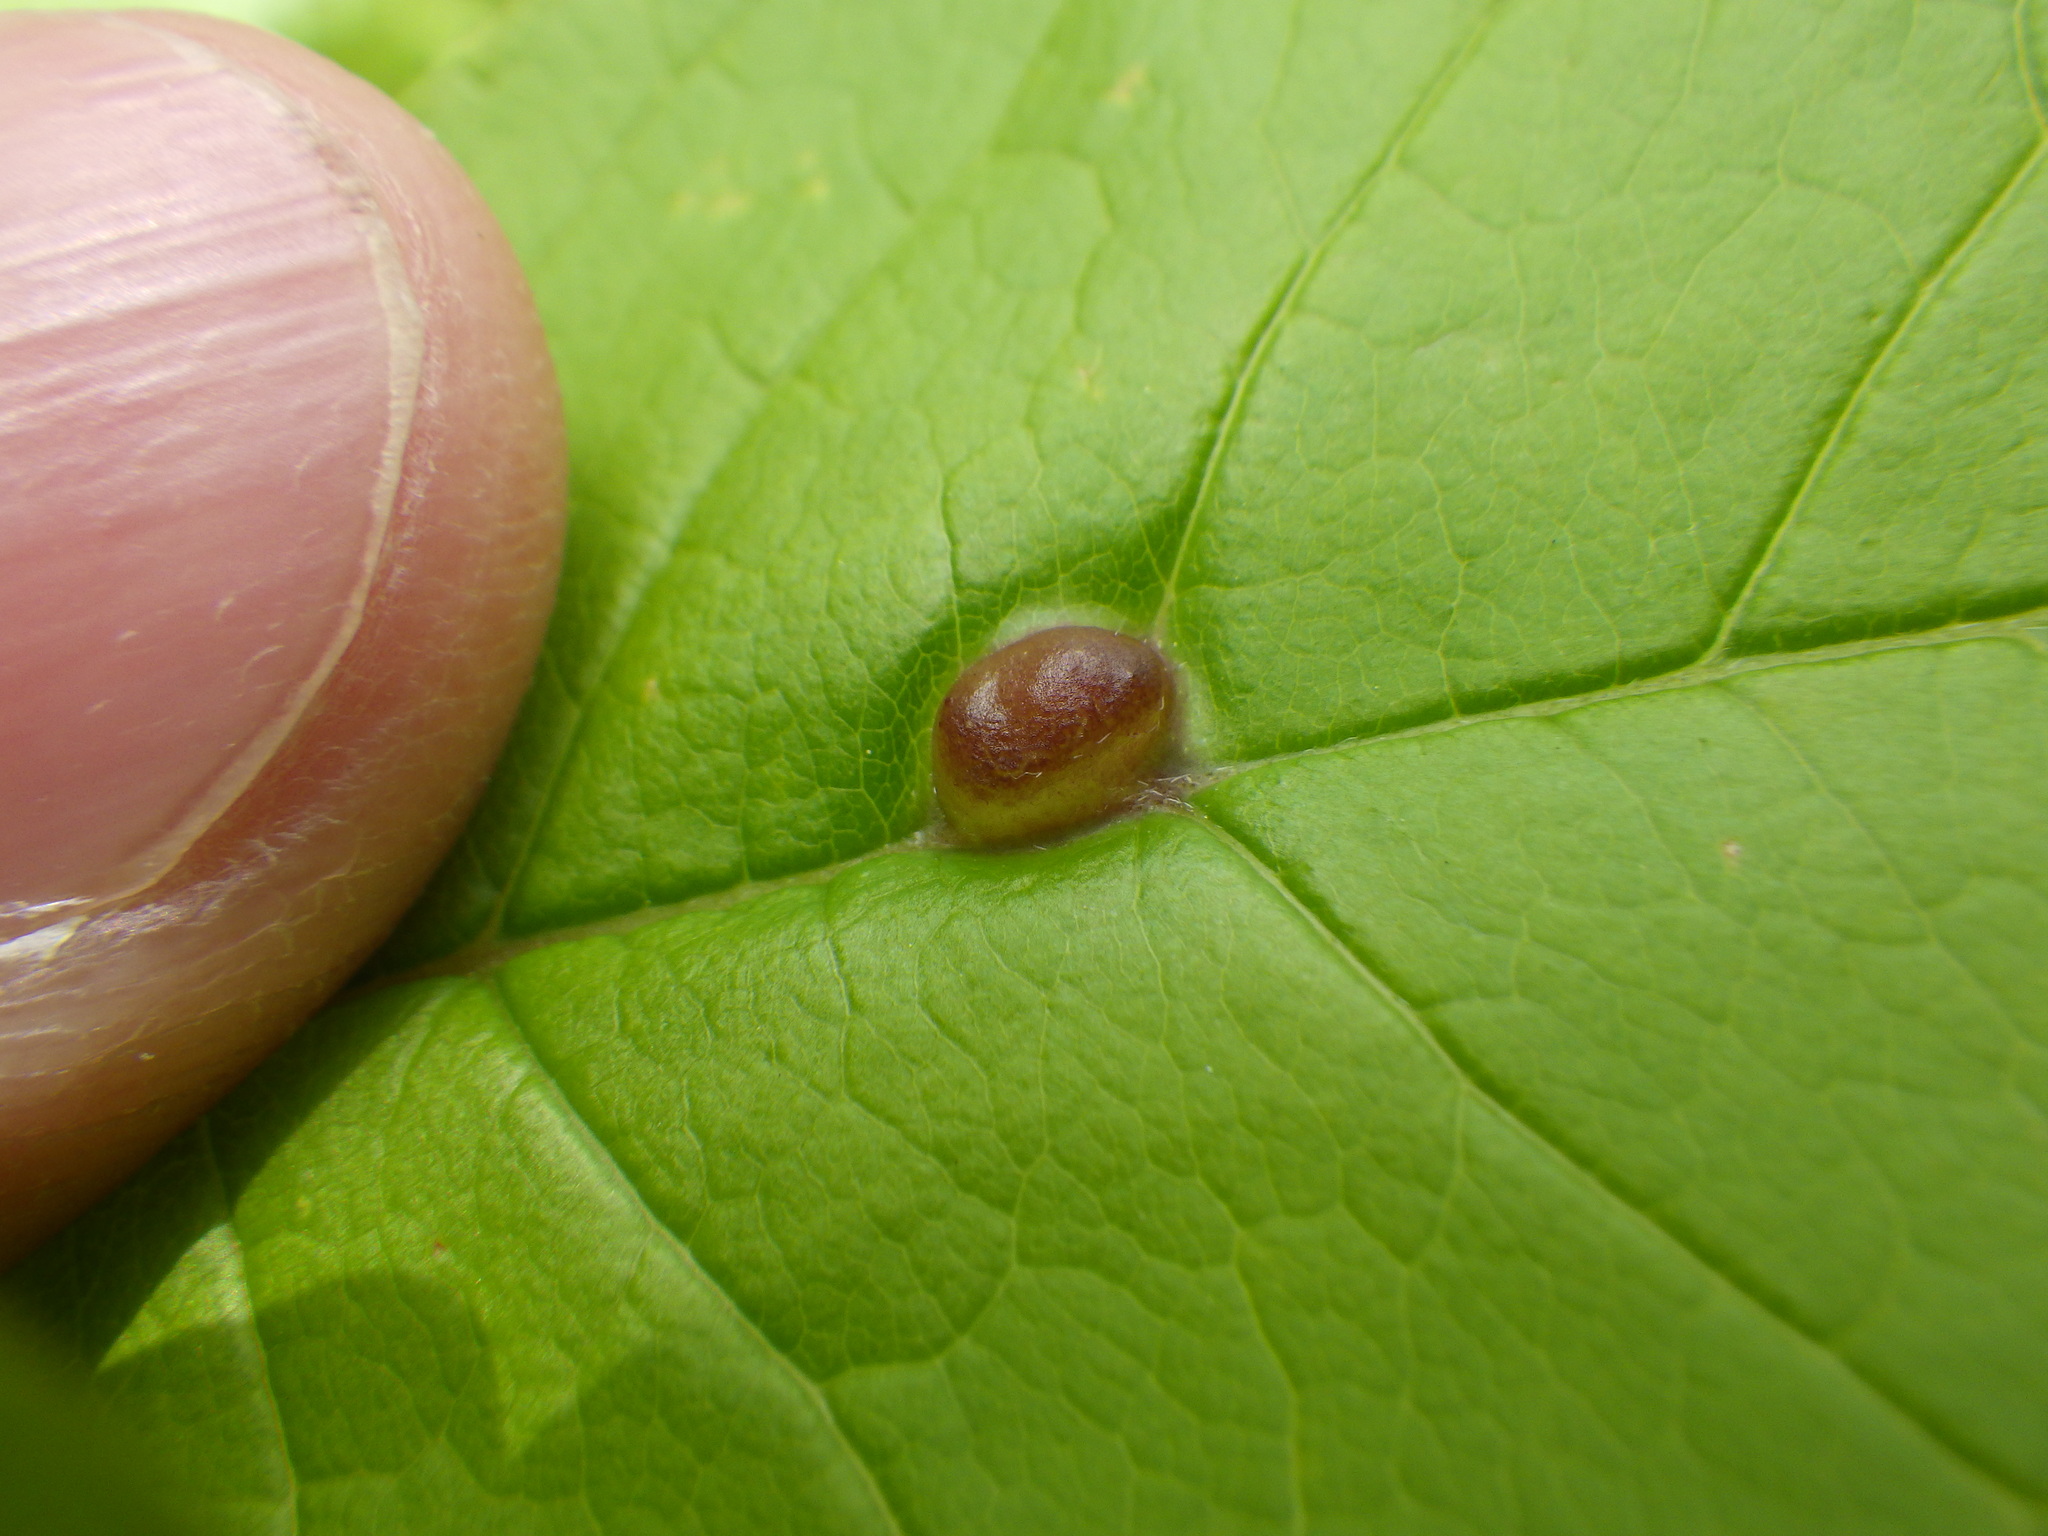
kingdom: Animalia
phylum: Arthropoda
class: Insecta
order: Diptera
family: Cecidomyiidae
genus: Dasineura
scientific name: Dasineura pellex
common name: Ash bullet gall midge
